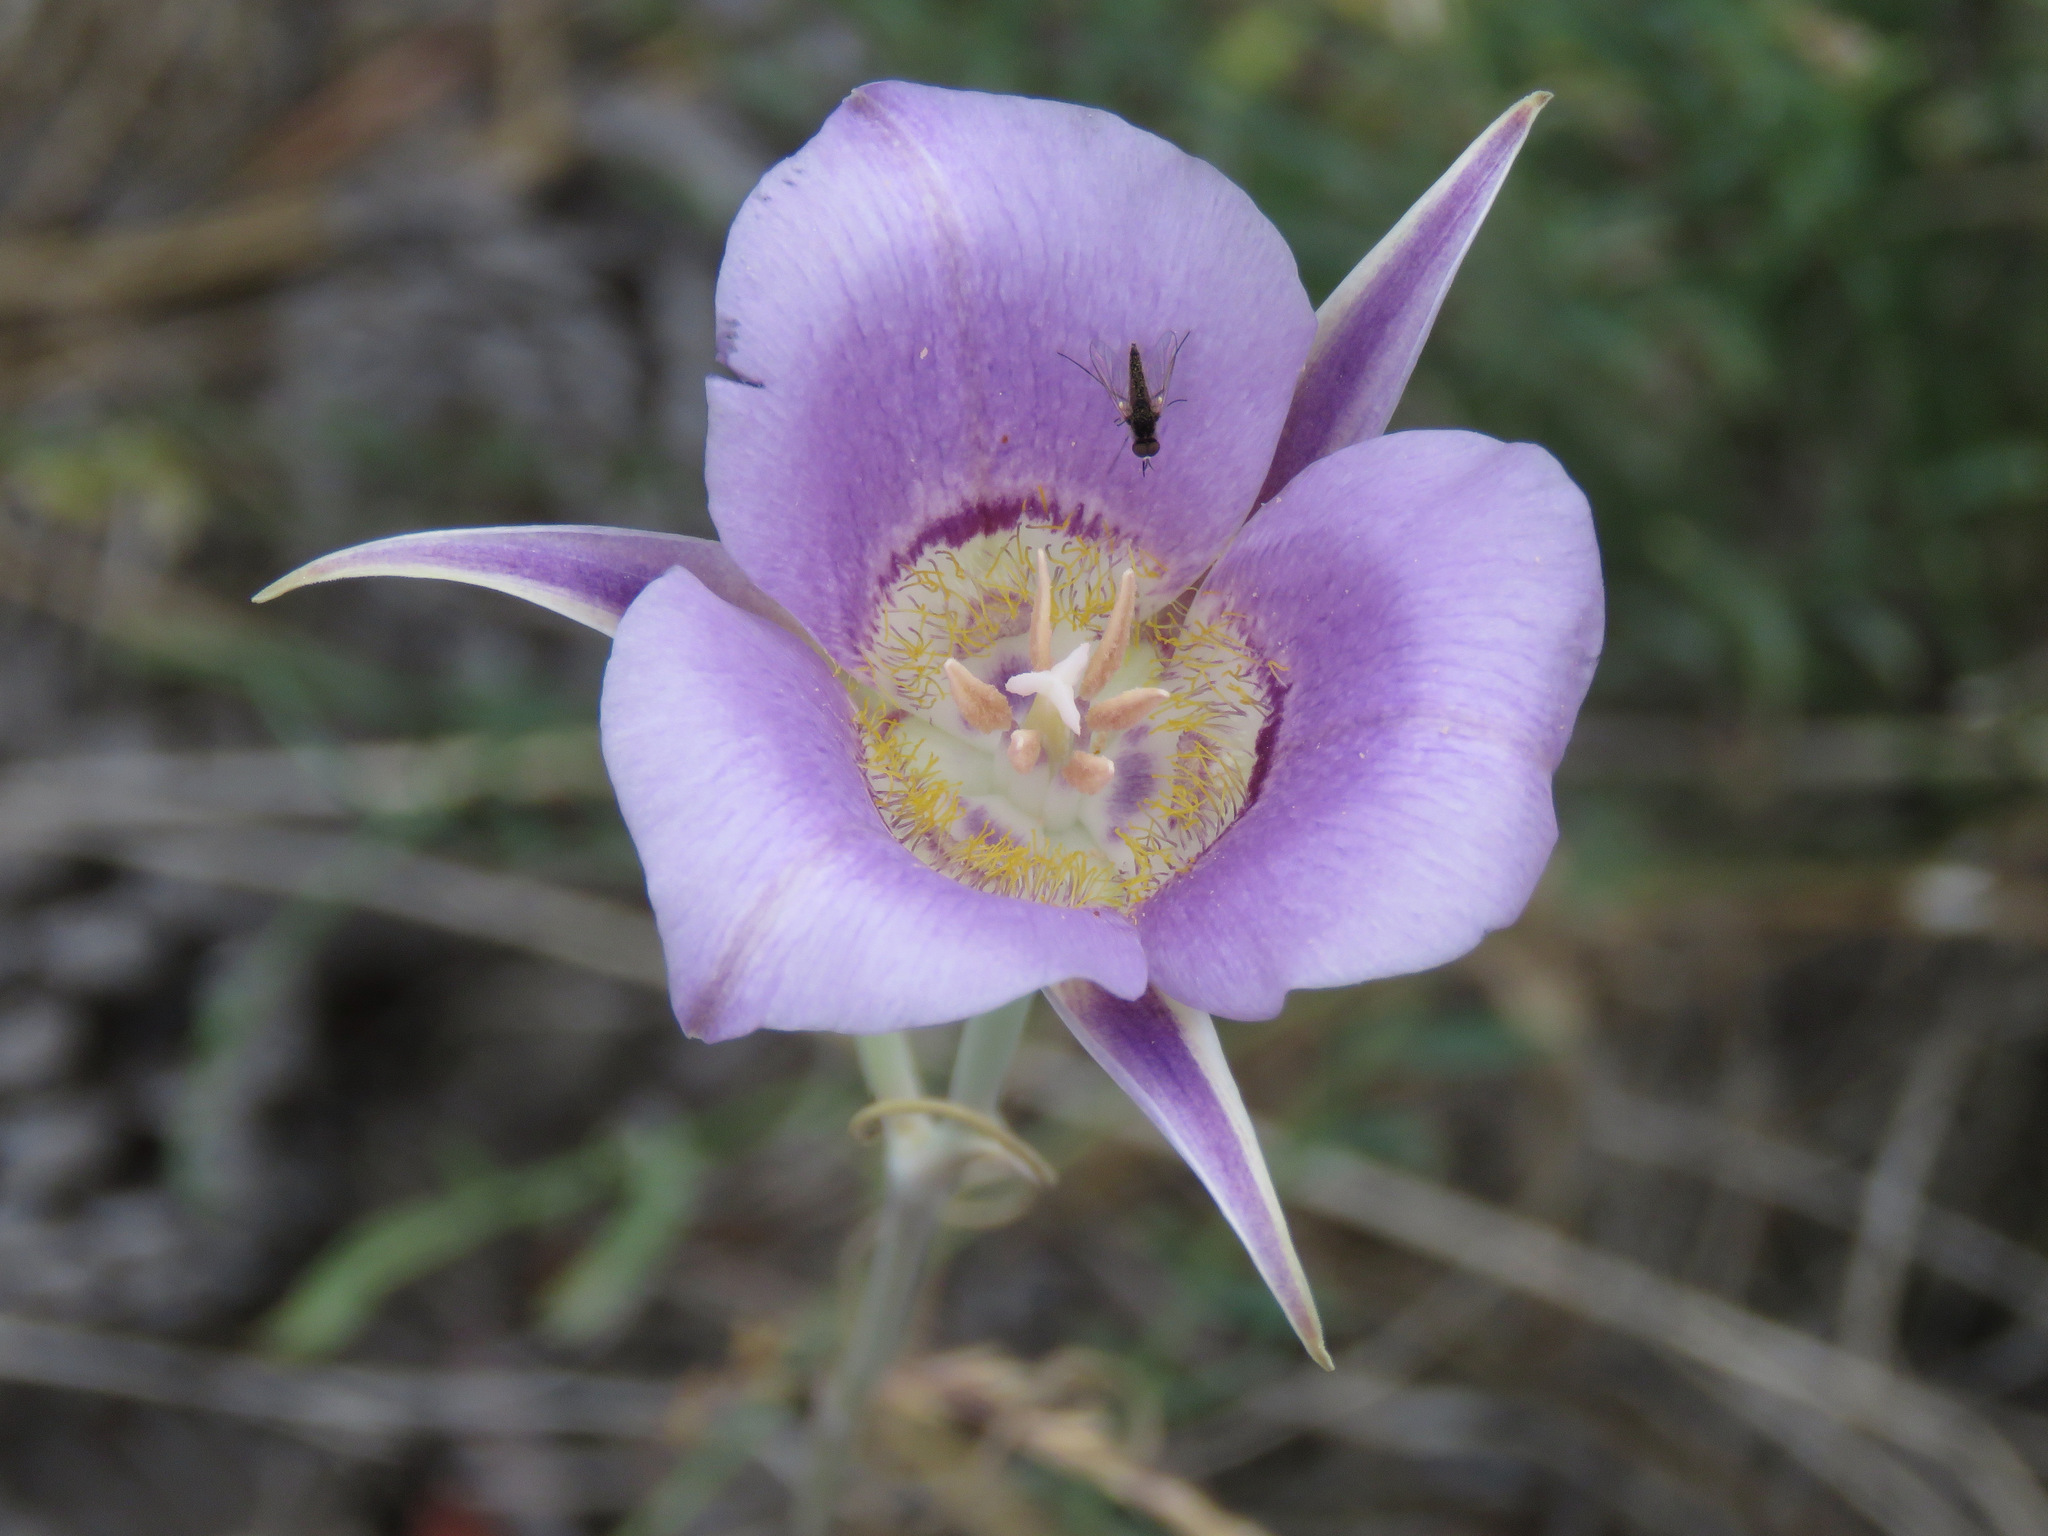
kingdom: Plantae
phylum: Tracheophyta
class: Liliopsida
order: Liliales
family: Liliaceae
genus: Calochortus
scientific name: Calochortus macrocarpus
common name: Green-band mariposa lily
